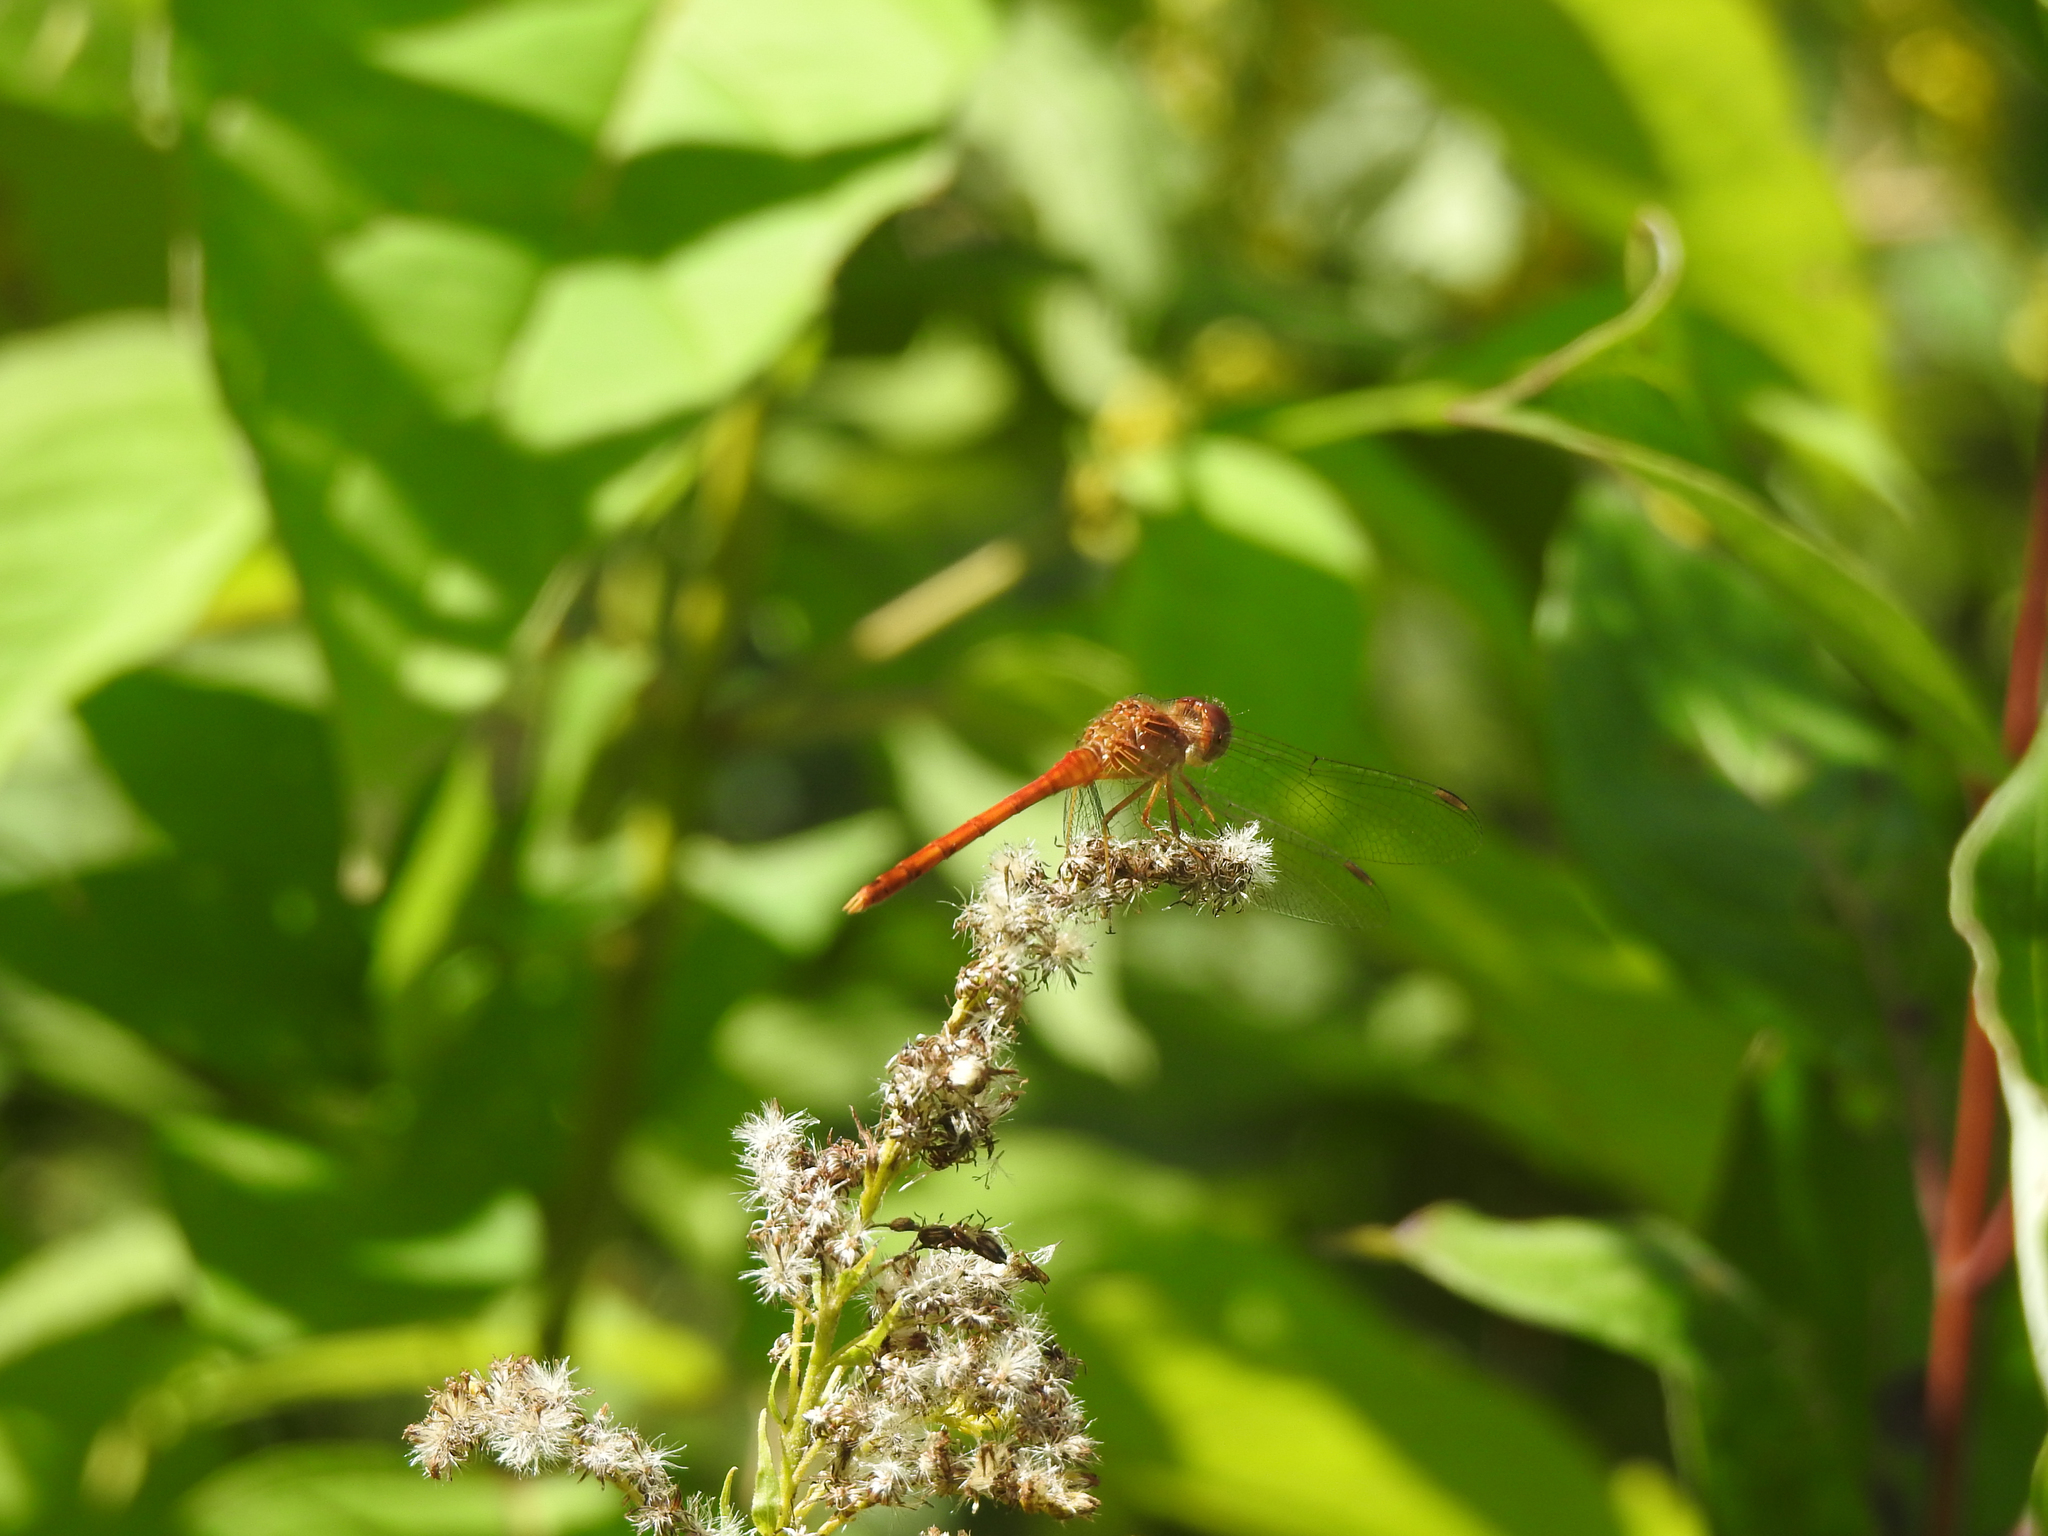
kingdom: Animalia
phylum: Arthropoda
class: Insecta
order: Odonata
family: Libellulidae
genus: Sympetrum
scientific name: Sympetrum vicinum
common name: Autumn meadowhawk
